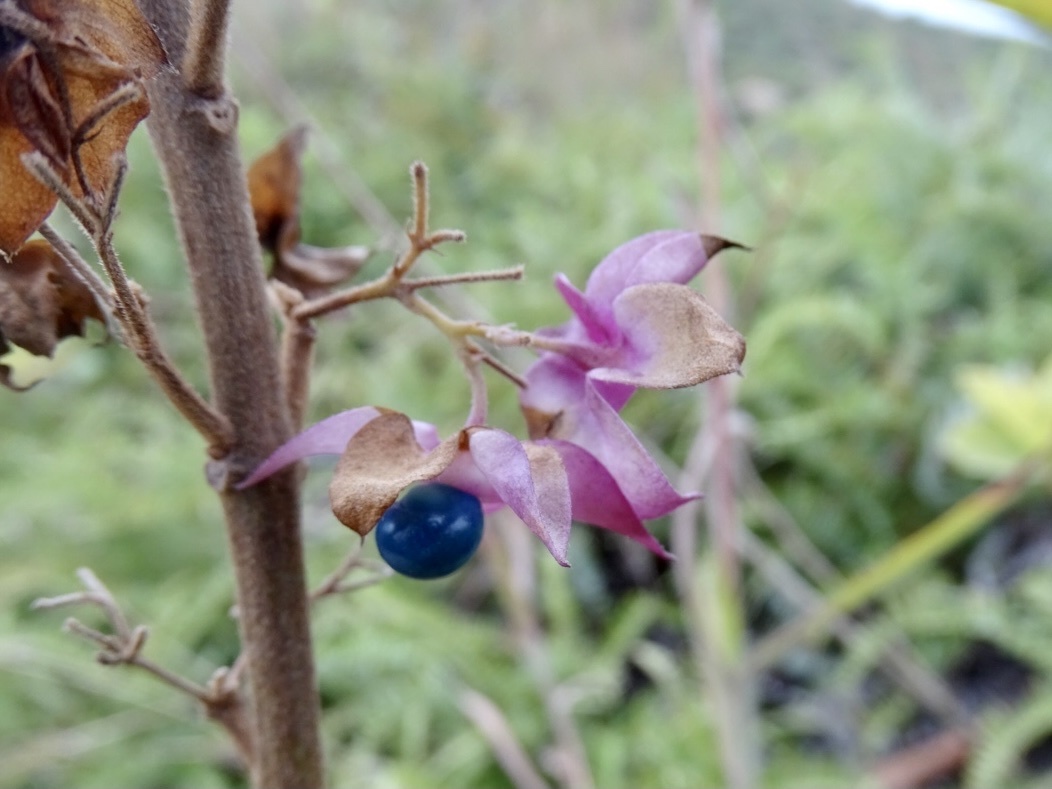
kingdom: Plantae
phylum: Tracheophyta
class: Magnoliopsida
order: Lamiales
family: Lamiaceae
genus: Clerodendrum
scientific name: Clerodendrum fortunatum
